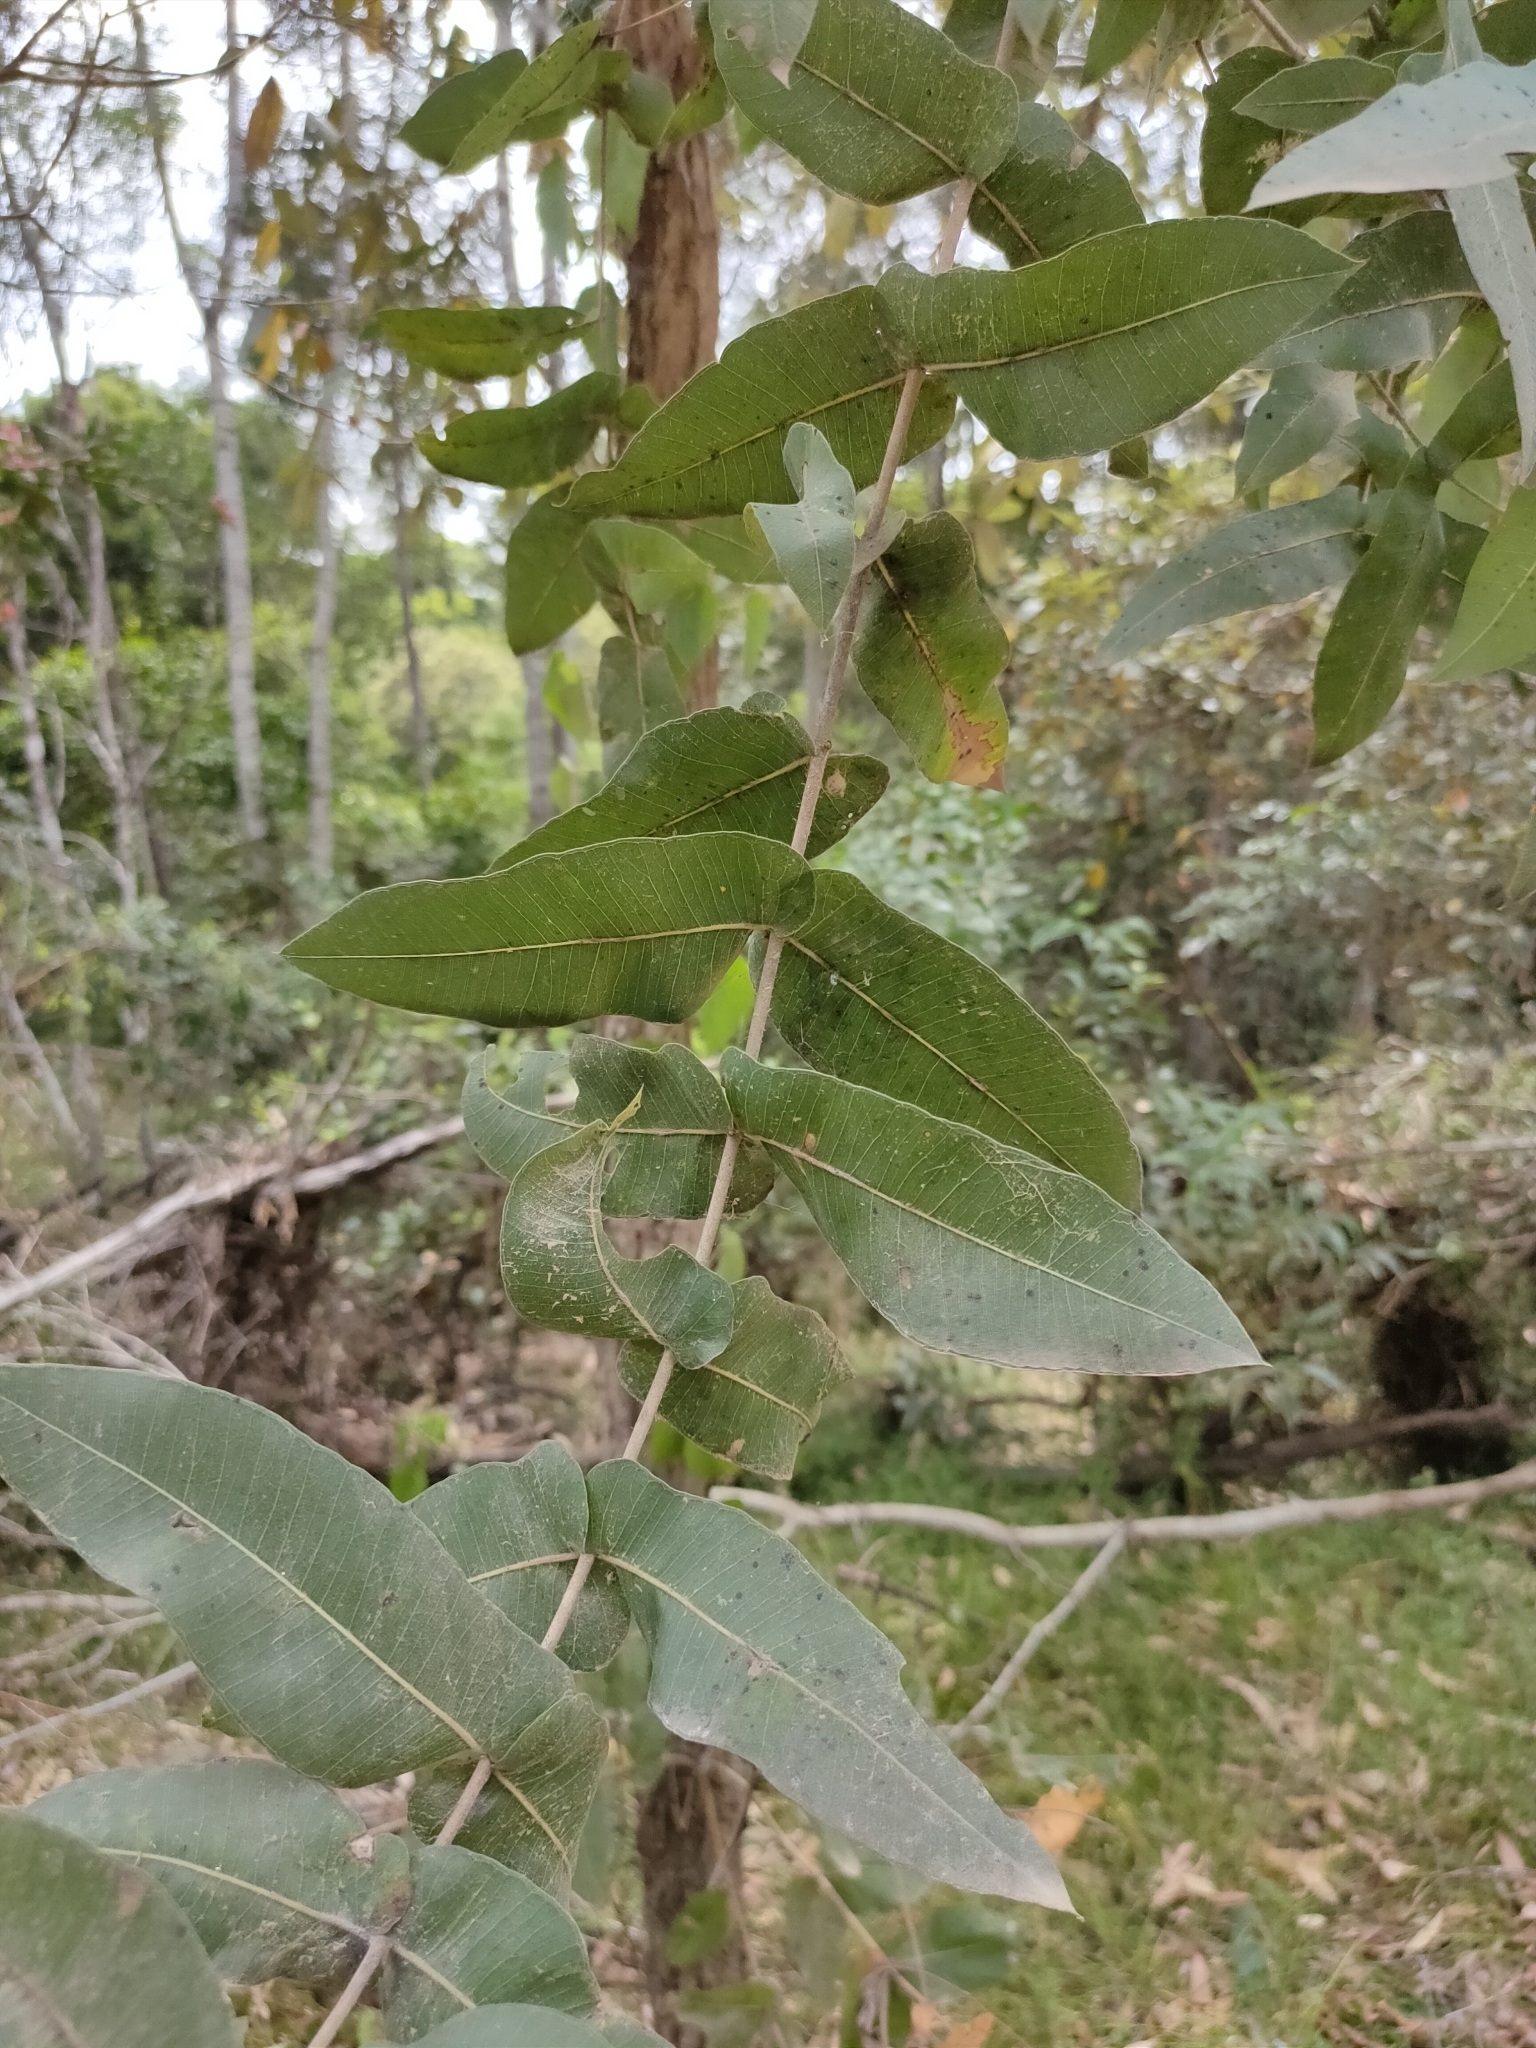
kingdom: Plantae
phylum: Tracheophyta
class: Magnoliopsida
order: Myrtales
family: Myrtaceae
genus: Angophora
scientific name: Angophora subvelutina
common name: Broad-leaved apple
